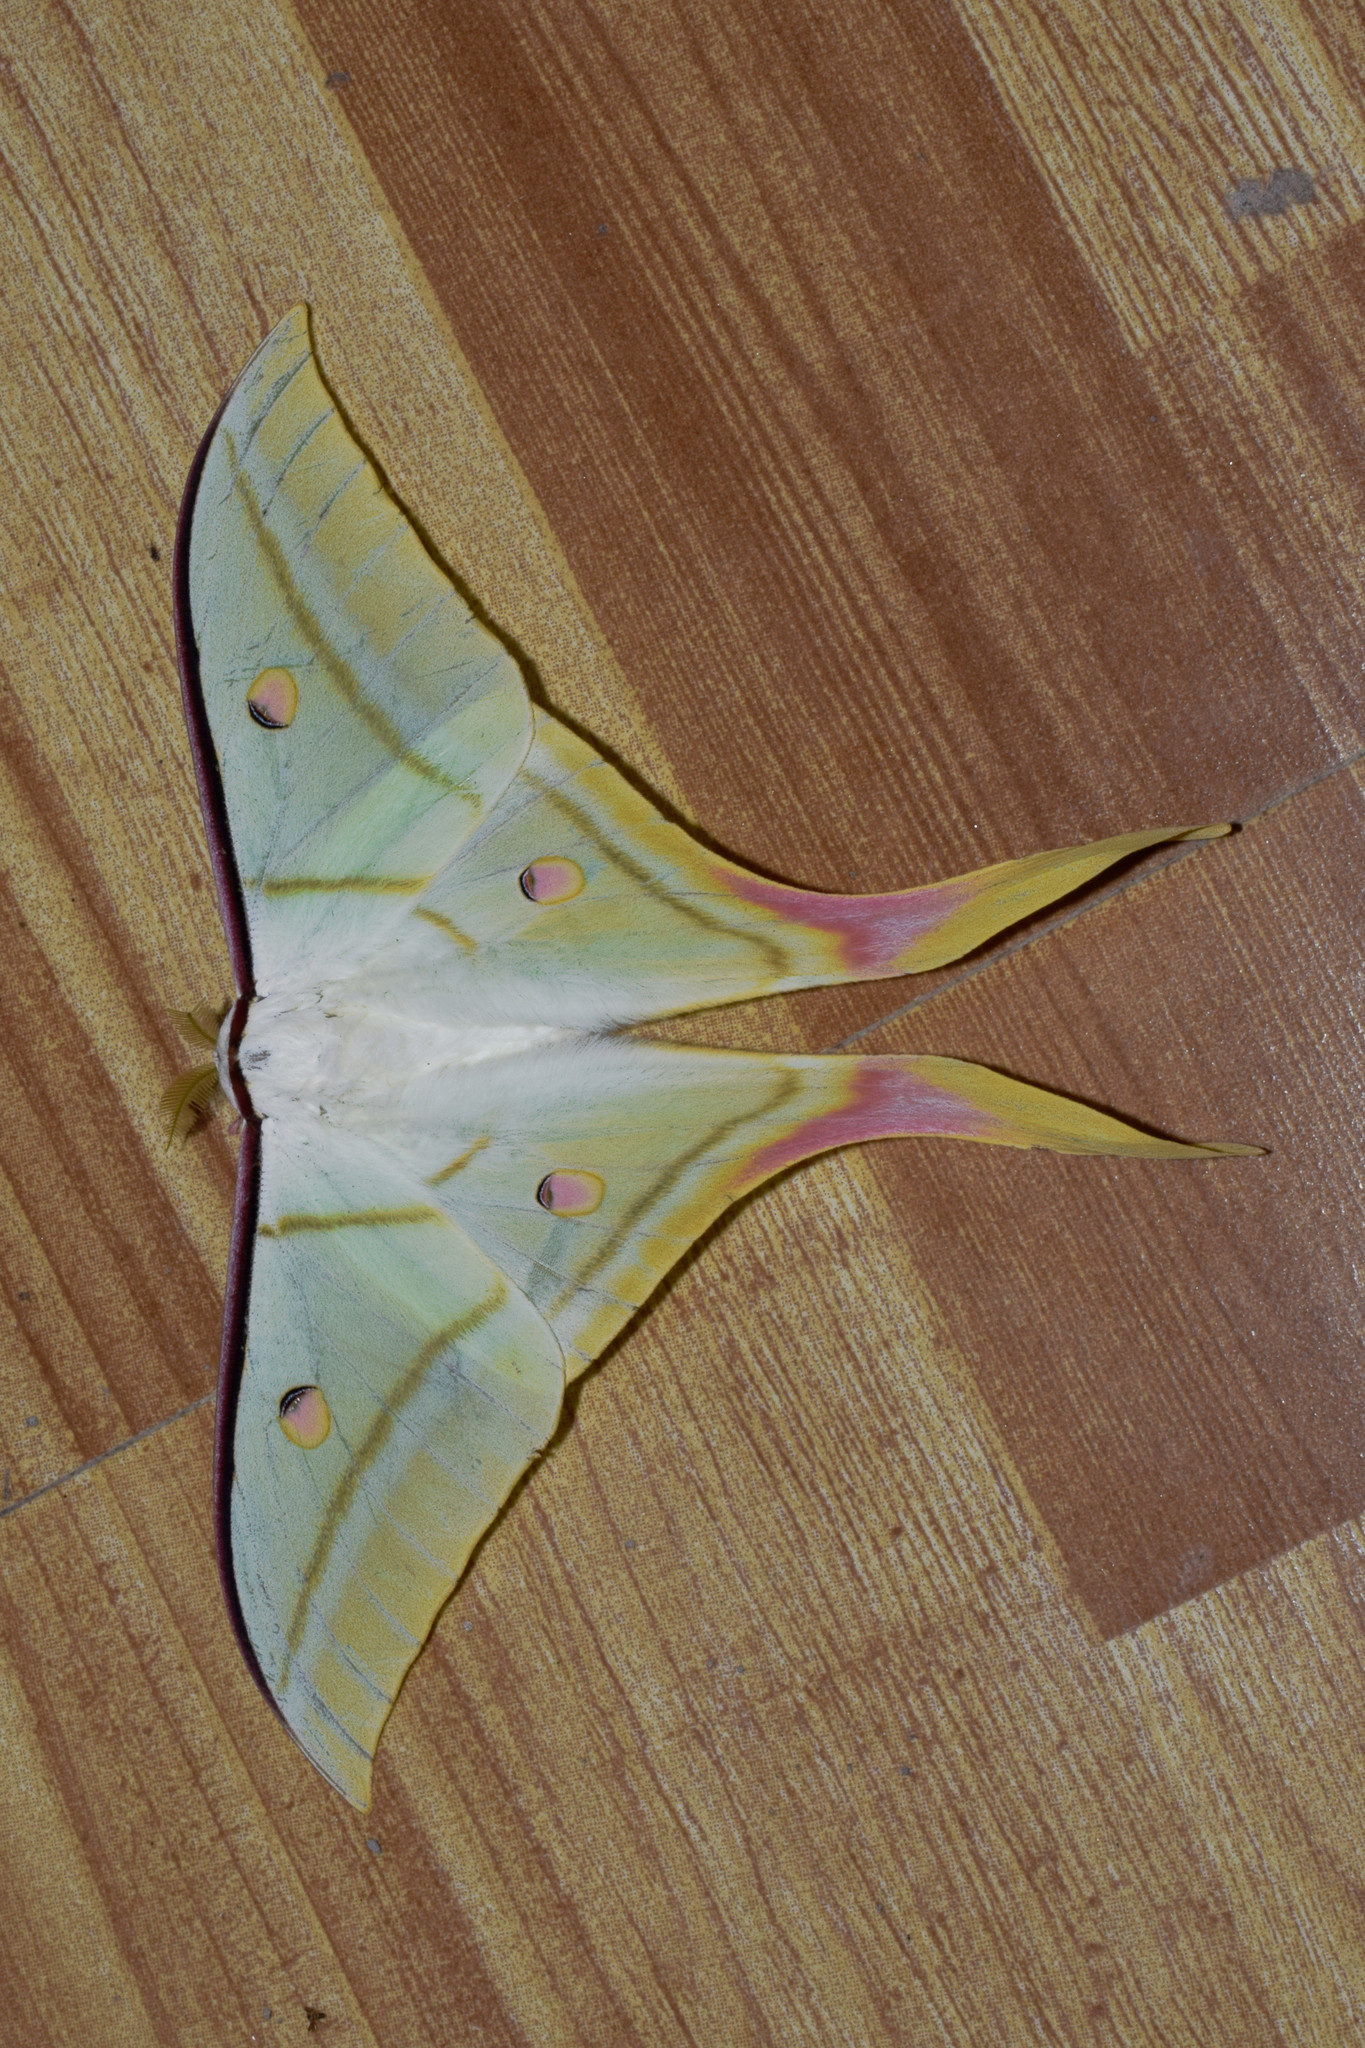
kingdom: Animalia
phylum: Arthropoda
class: Insecta
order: Lepidoptera
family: Saturniidae
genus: Actias
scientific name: Actias selene
